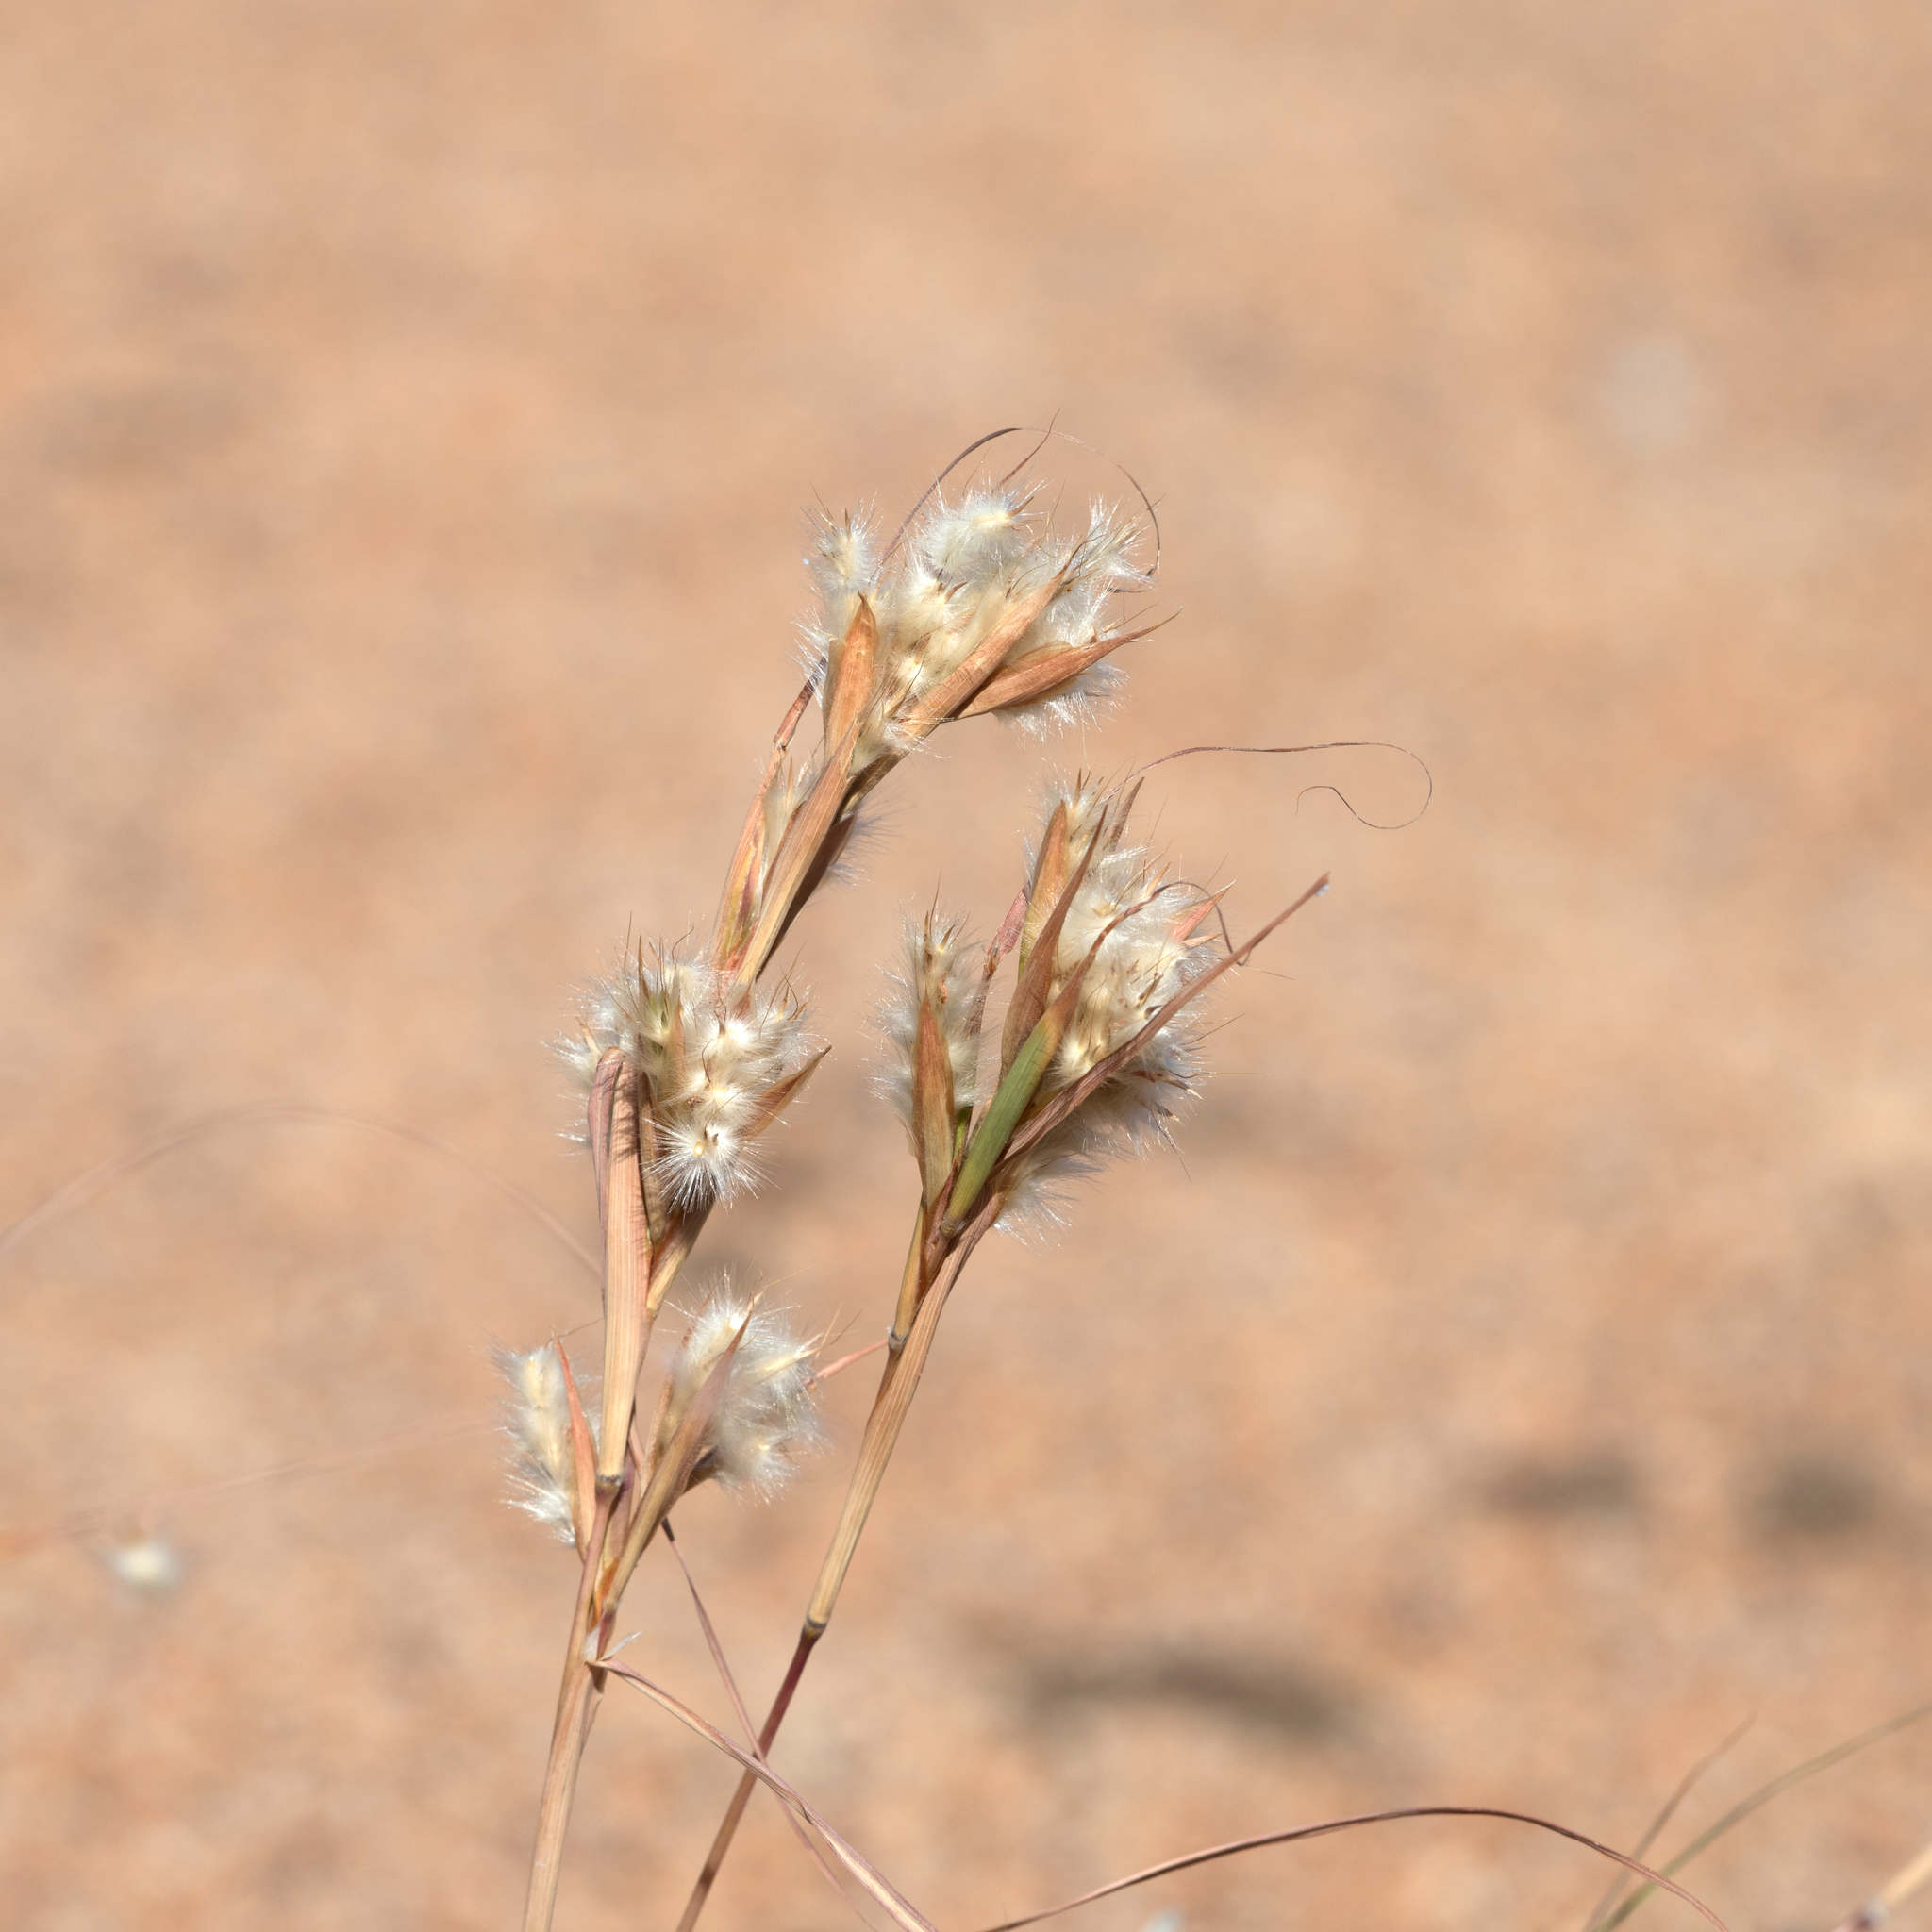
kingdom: Plantae
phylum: Tracheophyta
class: Liliopsida
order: Poales
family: Poaceae
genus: Cymbopogon
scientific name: Cymbopogon obtectus
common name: Silky heads
